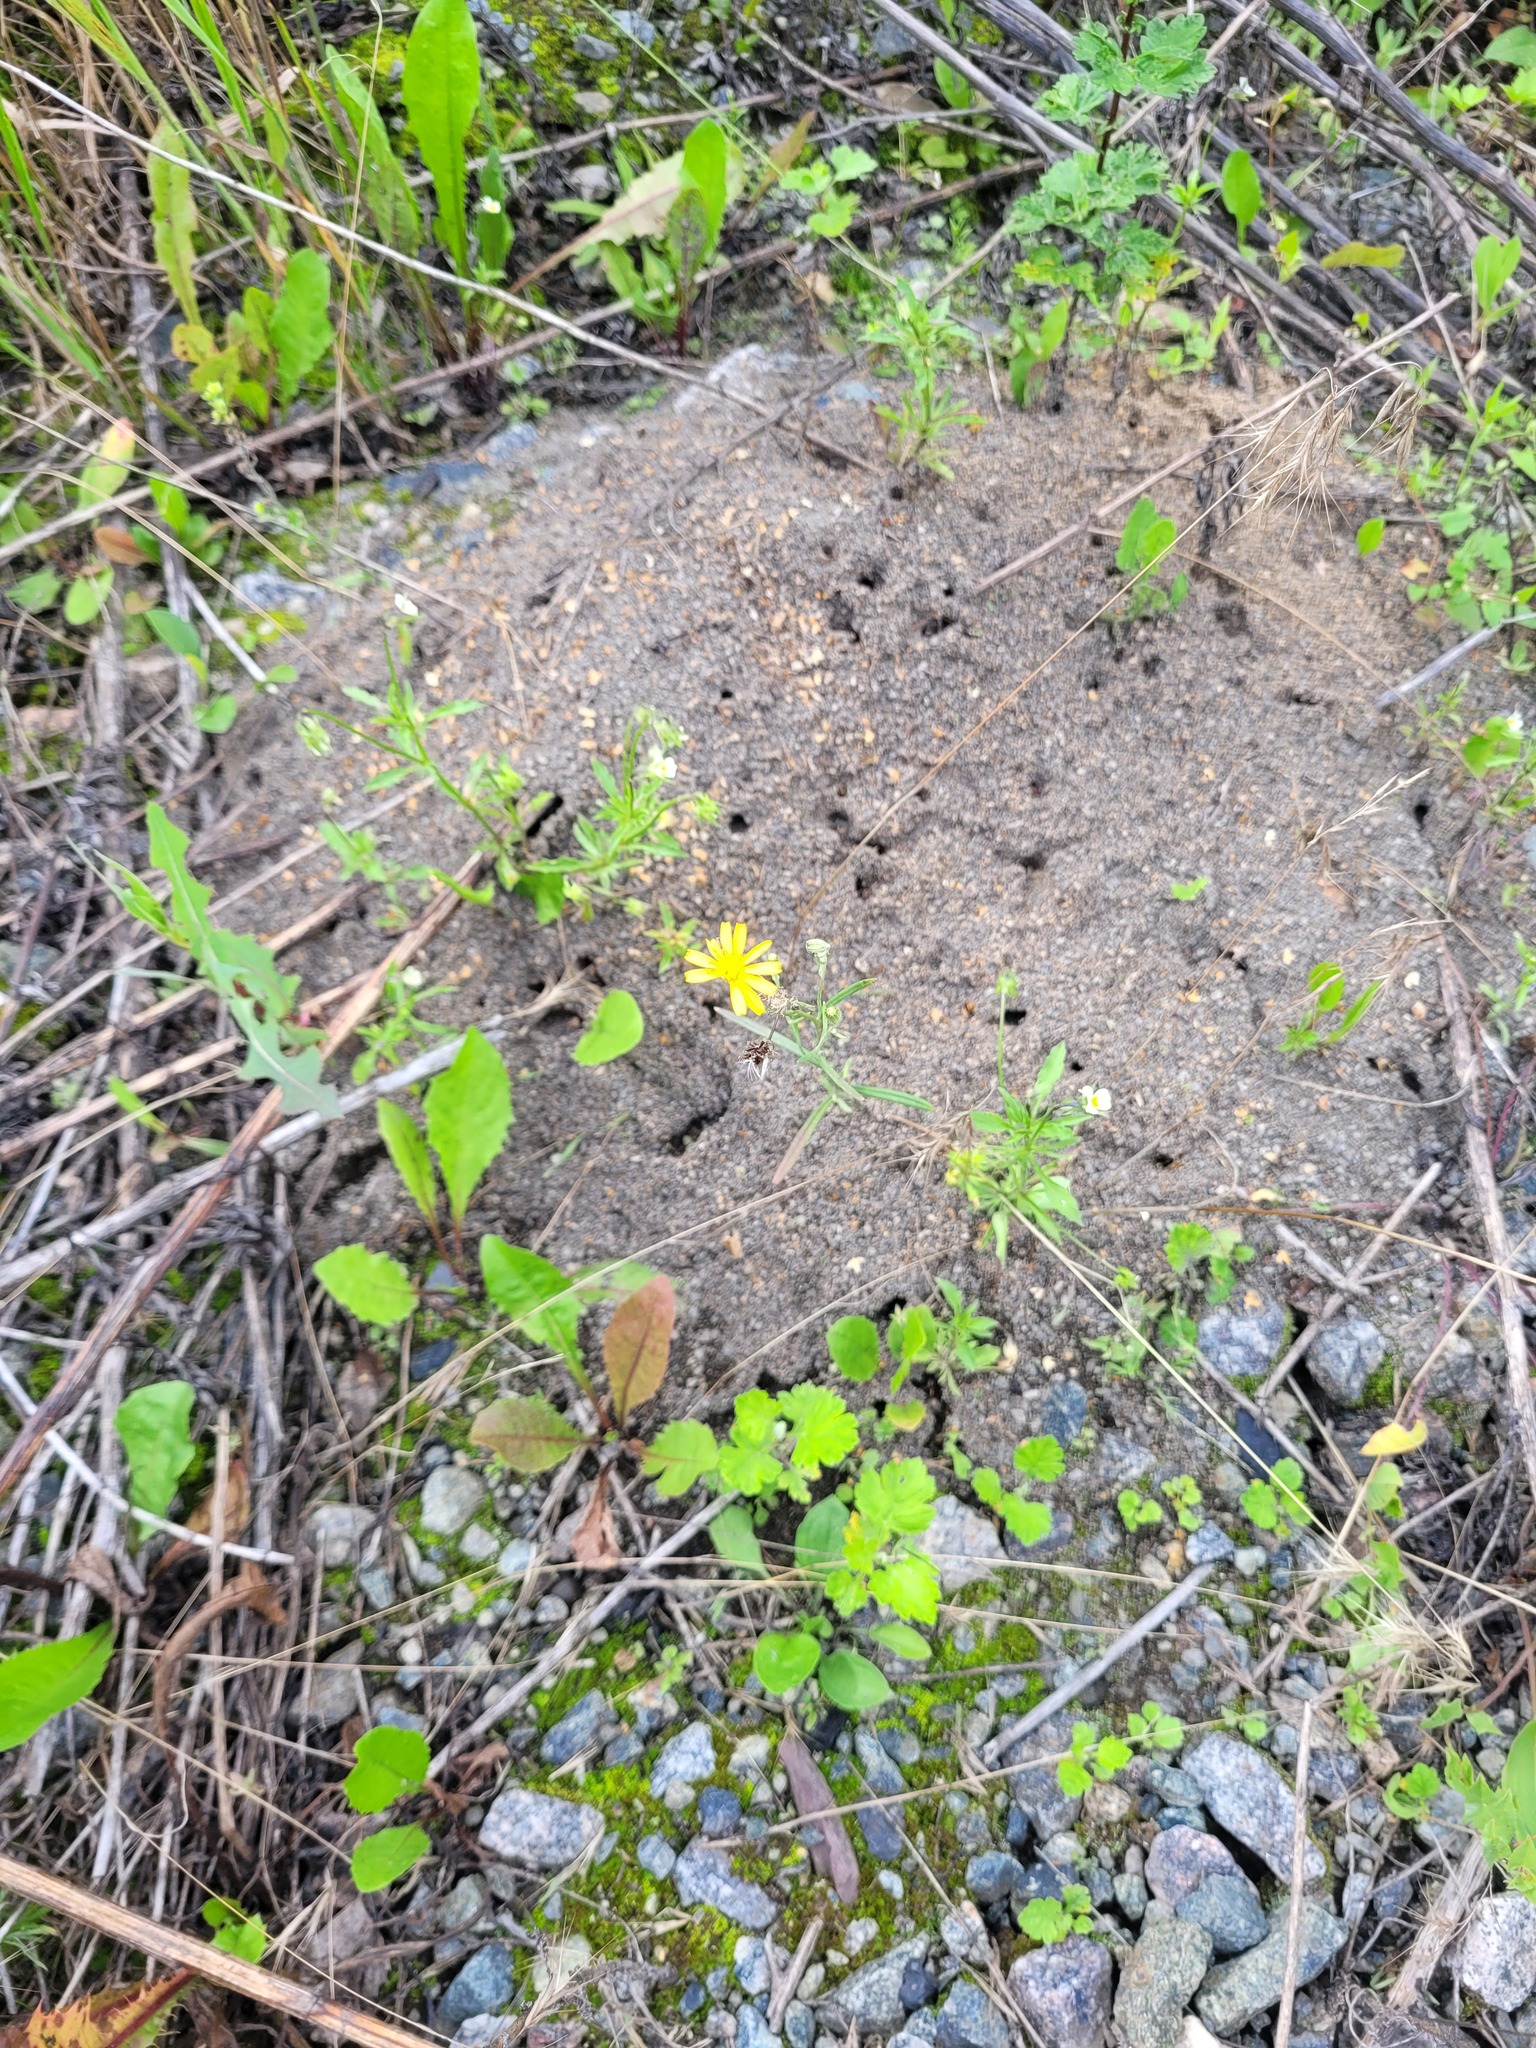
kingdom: Plantae
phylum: Tracheophyta
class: Magnoliopsida
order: Asterales
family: Asteraceae
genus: Crepis
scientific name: Crepis tectorum
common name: Narrow-leaved hawk's-beard
